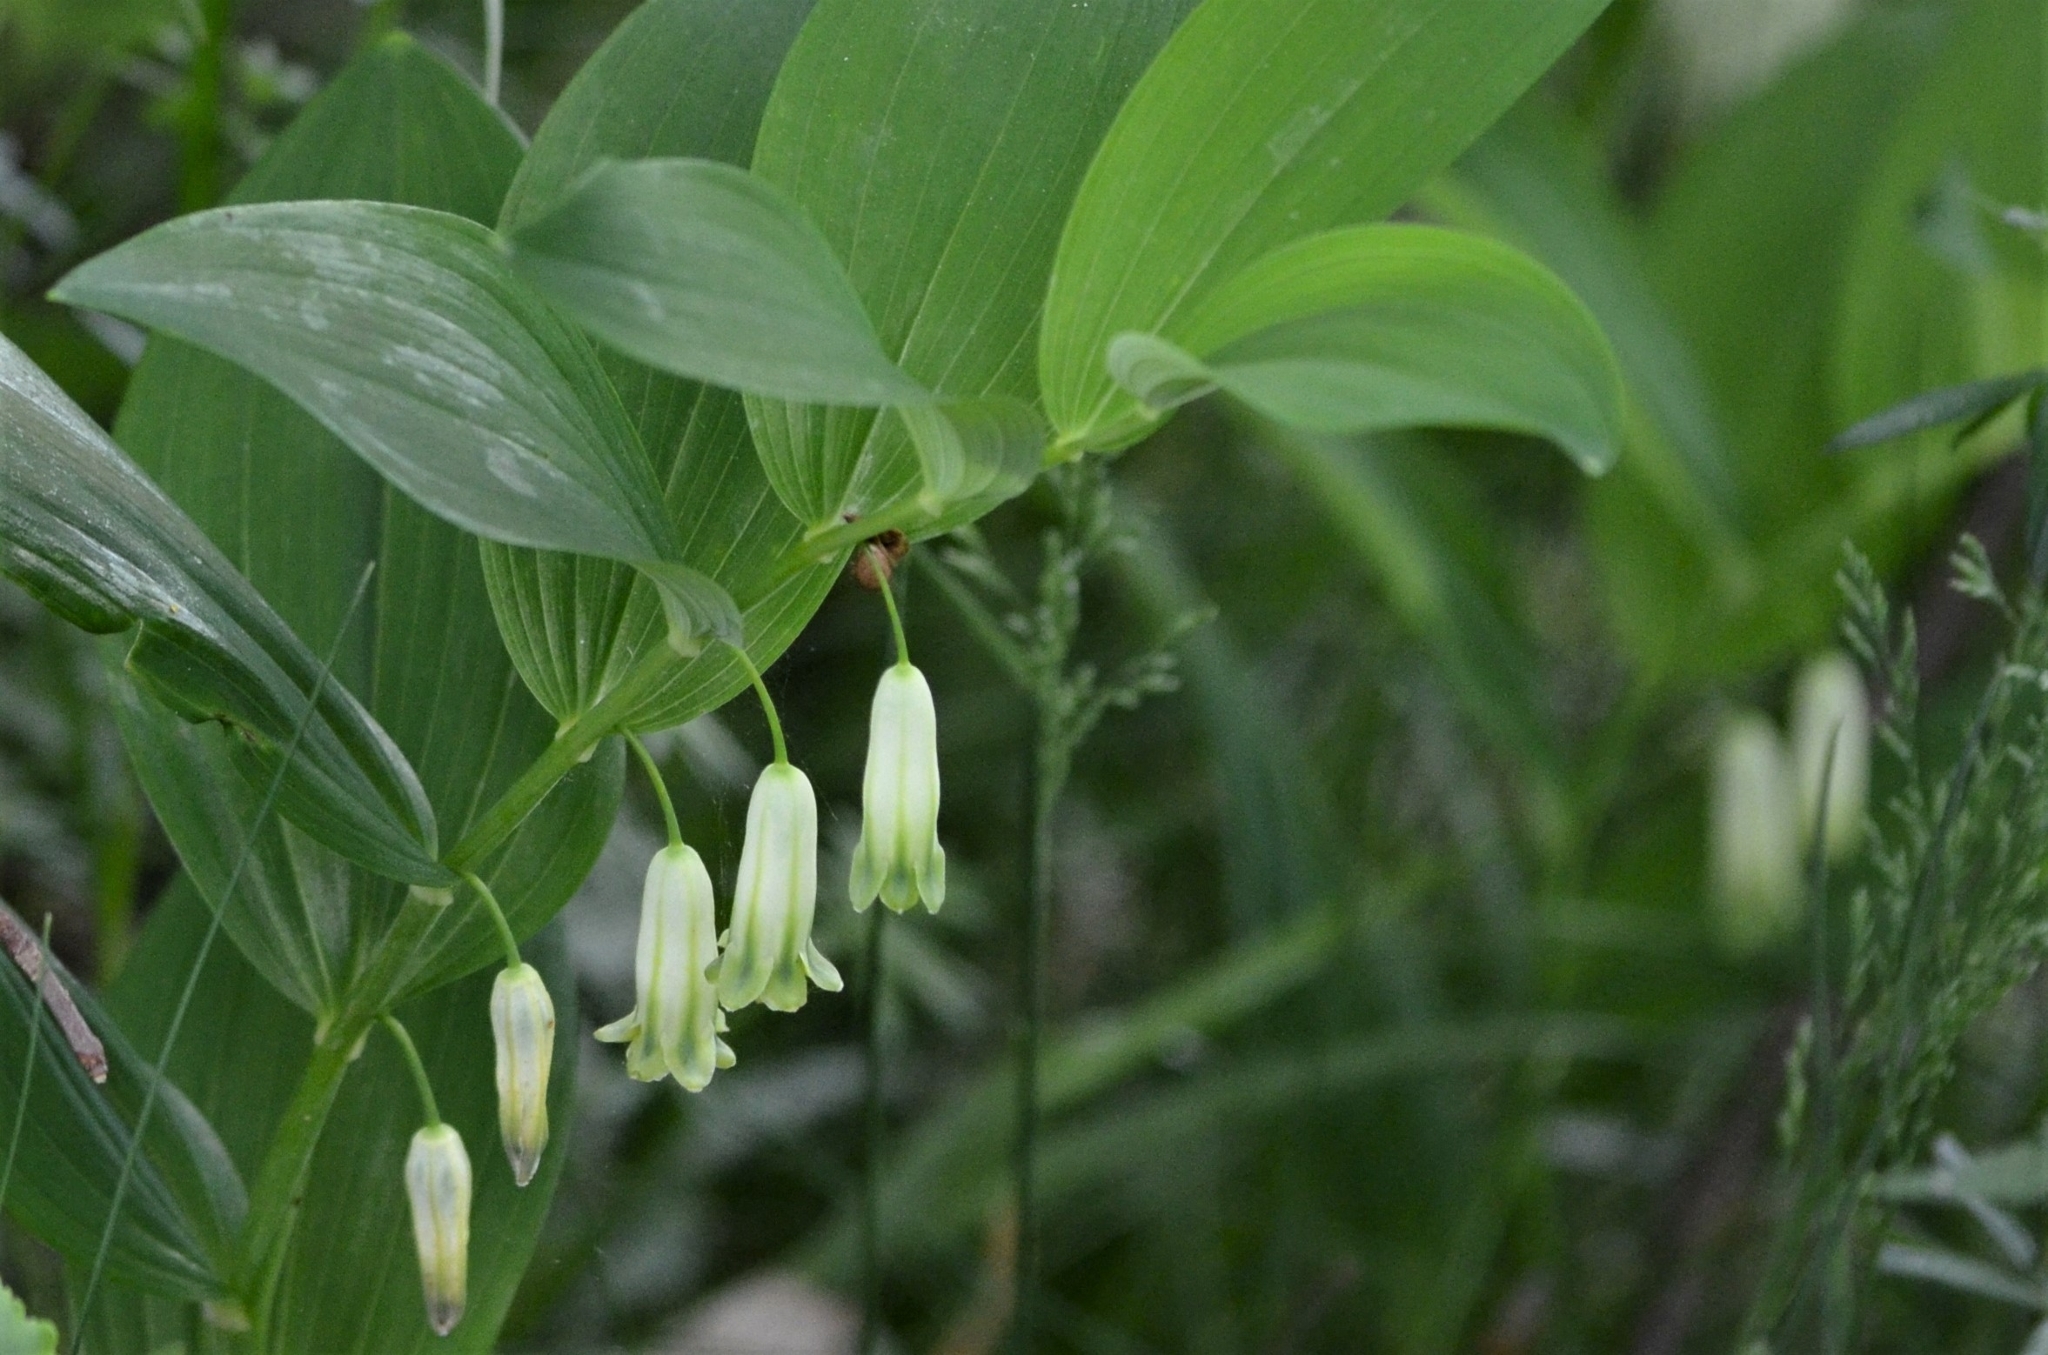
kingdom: Plantae
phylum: Tracheophyta
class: Liliopsida
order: Asparagales
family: Asparagaceae
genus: Polygonatum
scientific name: Polygonatum odoratum
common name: Angular solomon's-seal
